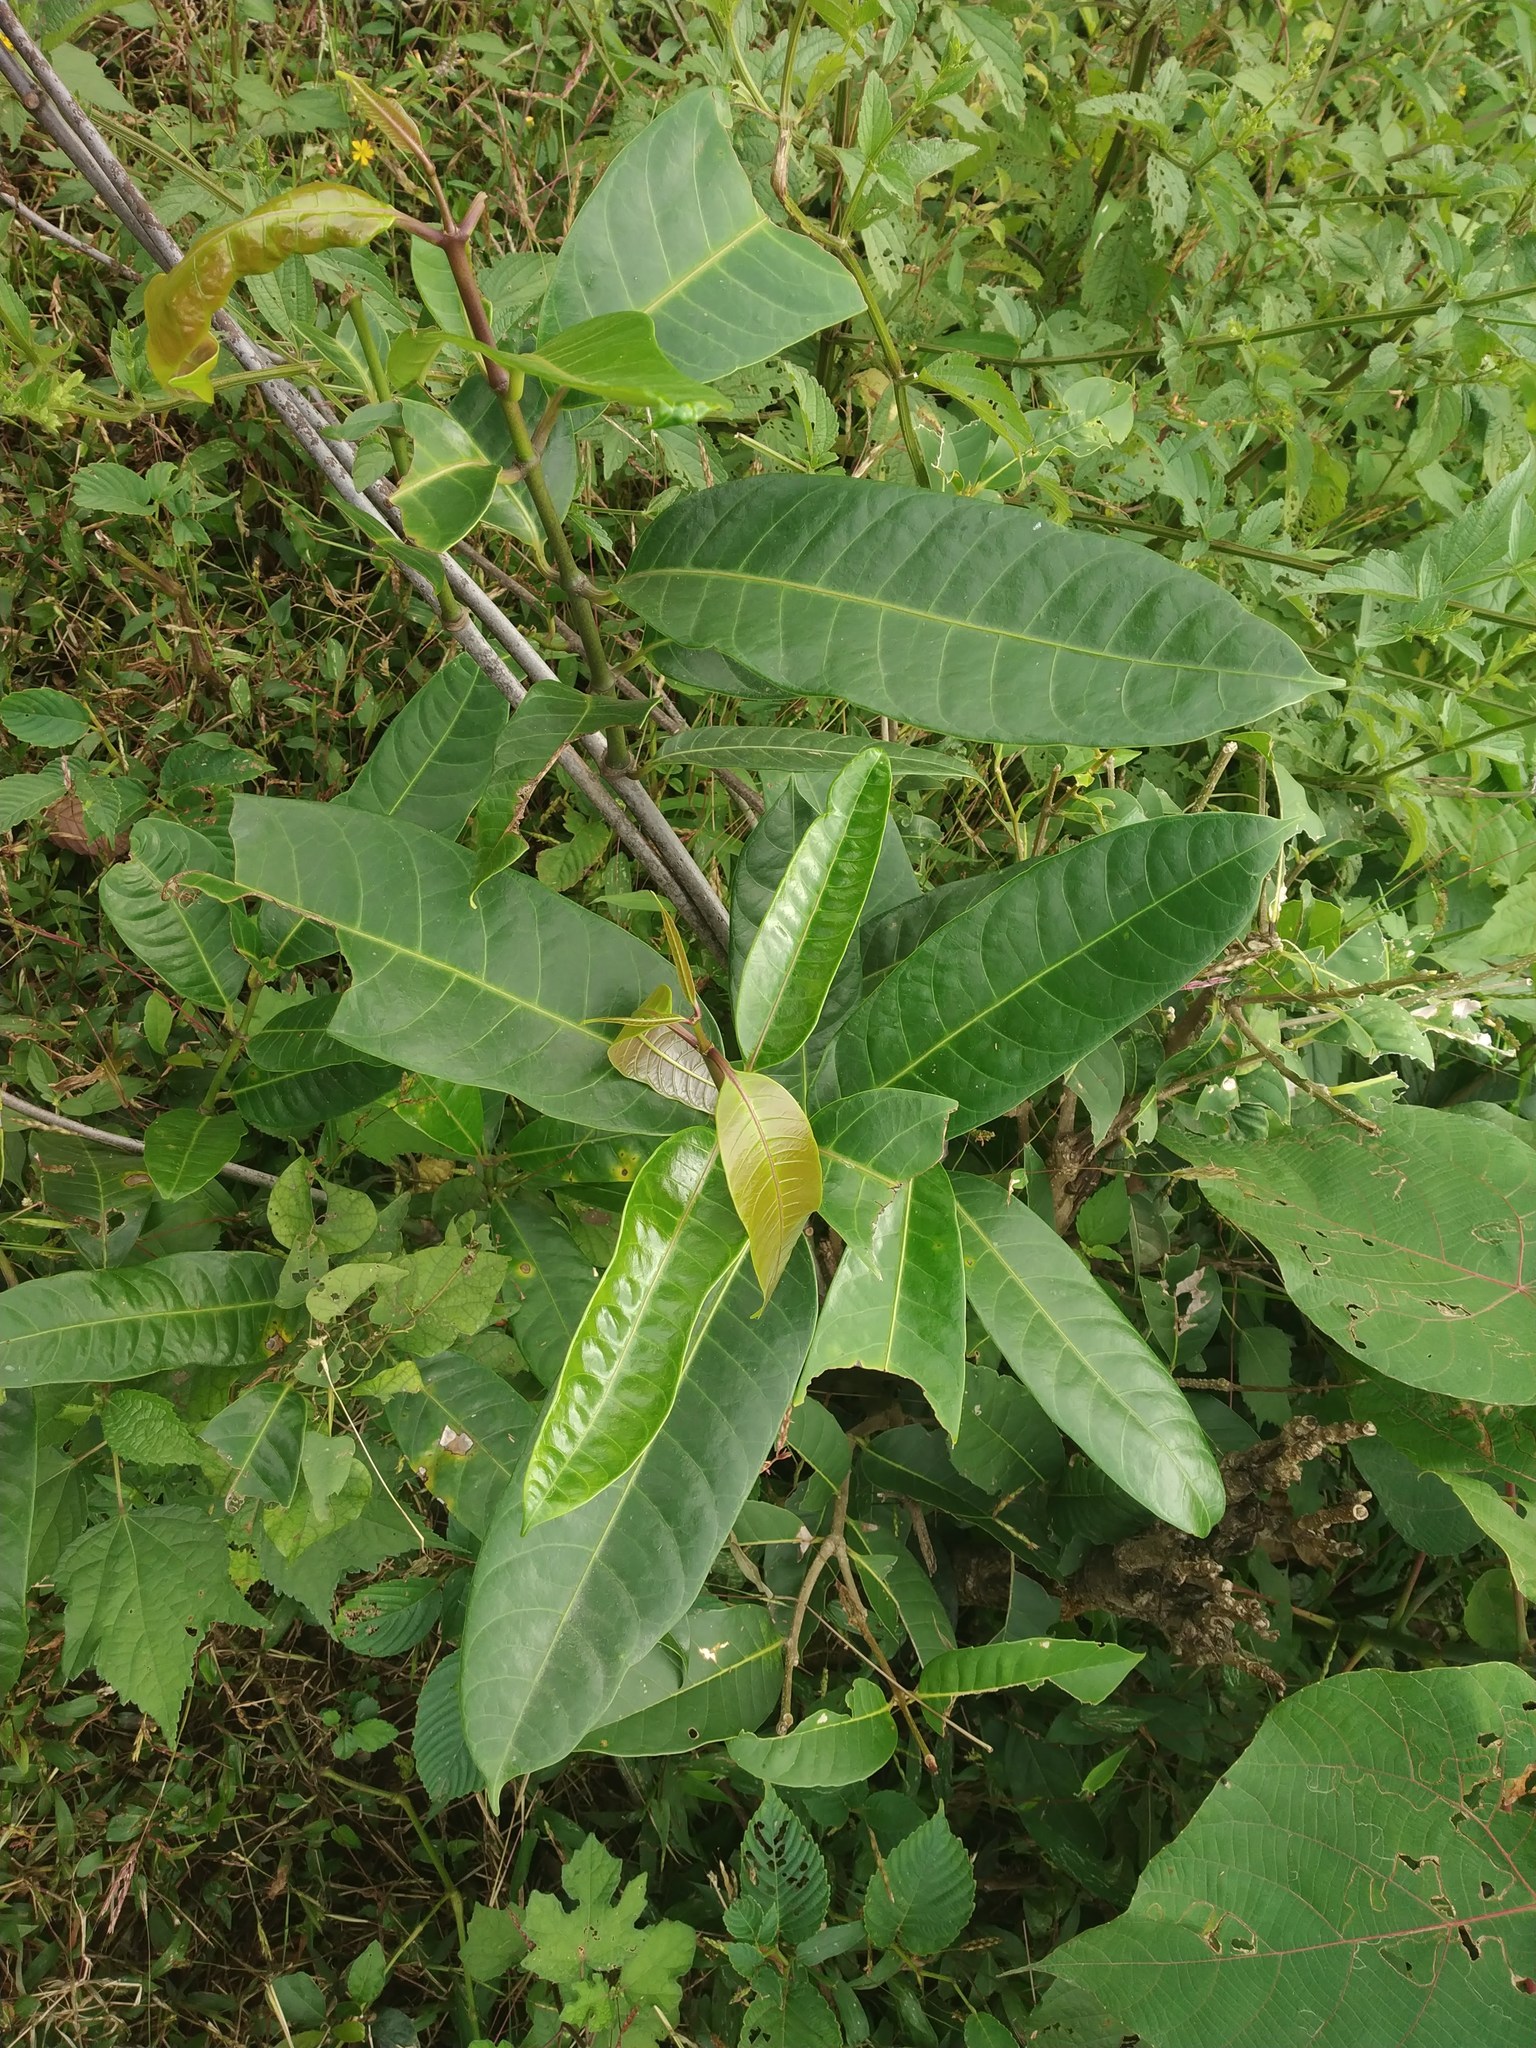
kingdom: Plantae
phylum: Tracheophyta
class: Magnoliopsida
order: Gentianales
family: Apocynaceae
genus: Anodendron
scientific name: Anodendron parviflorum
